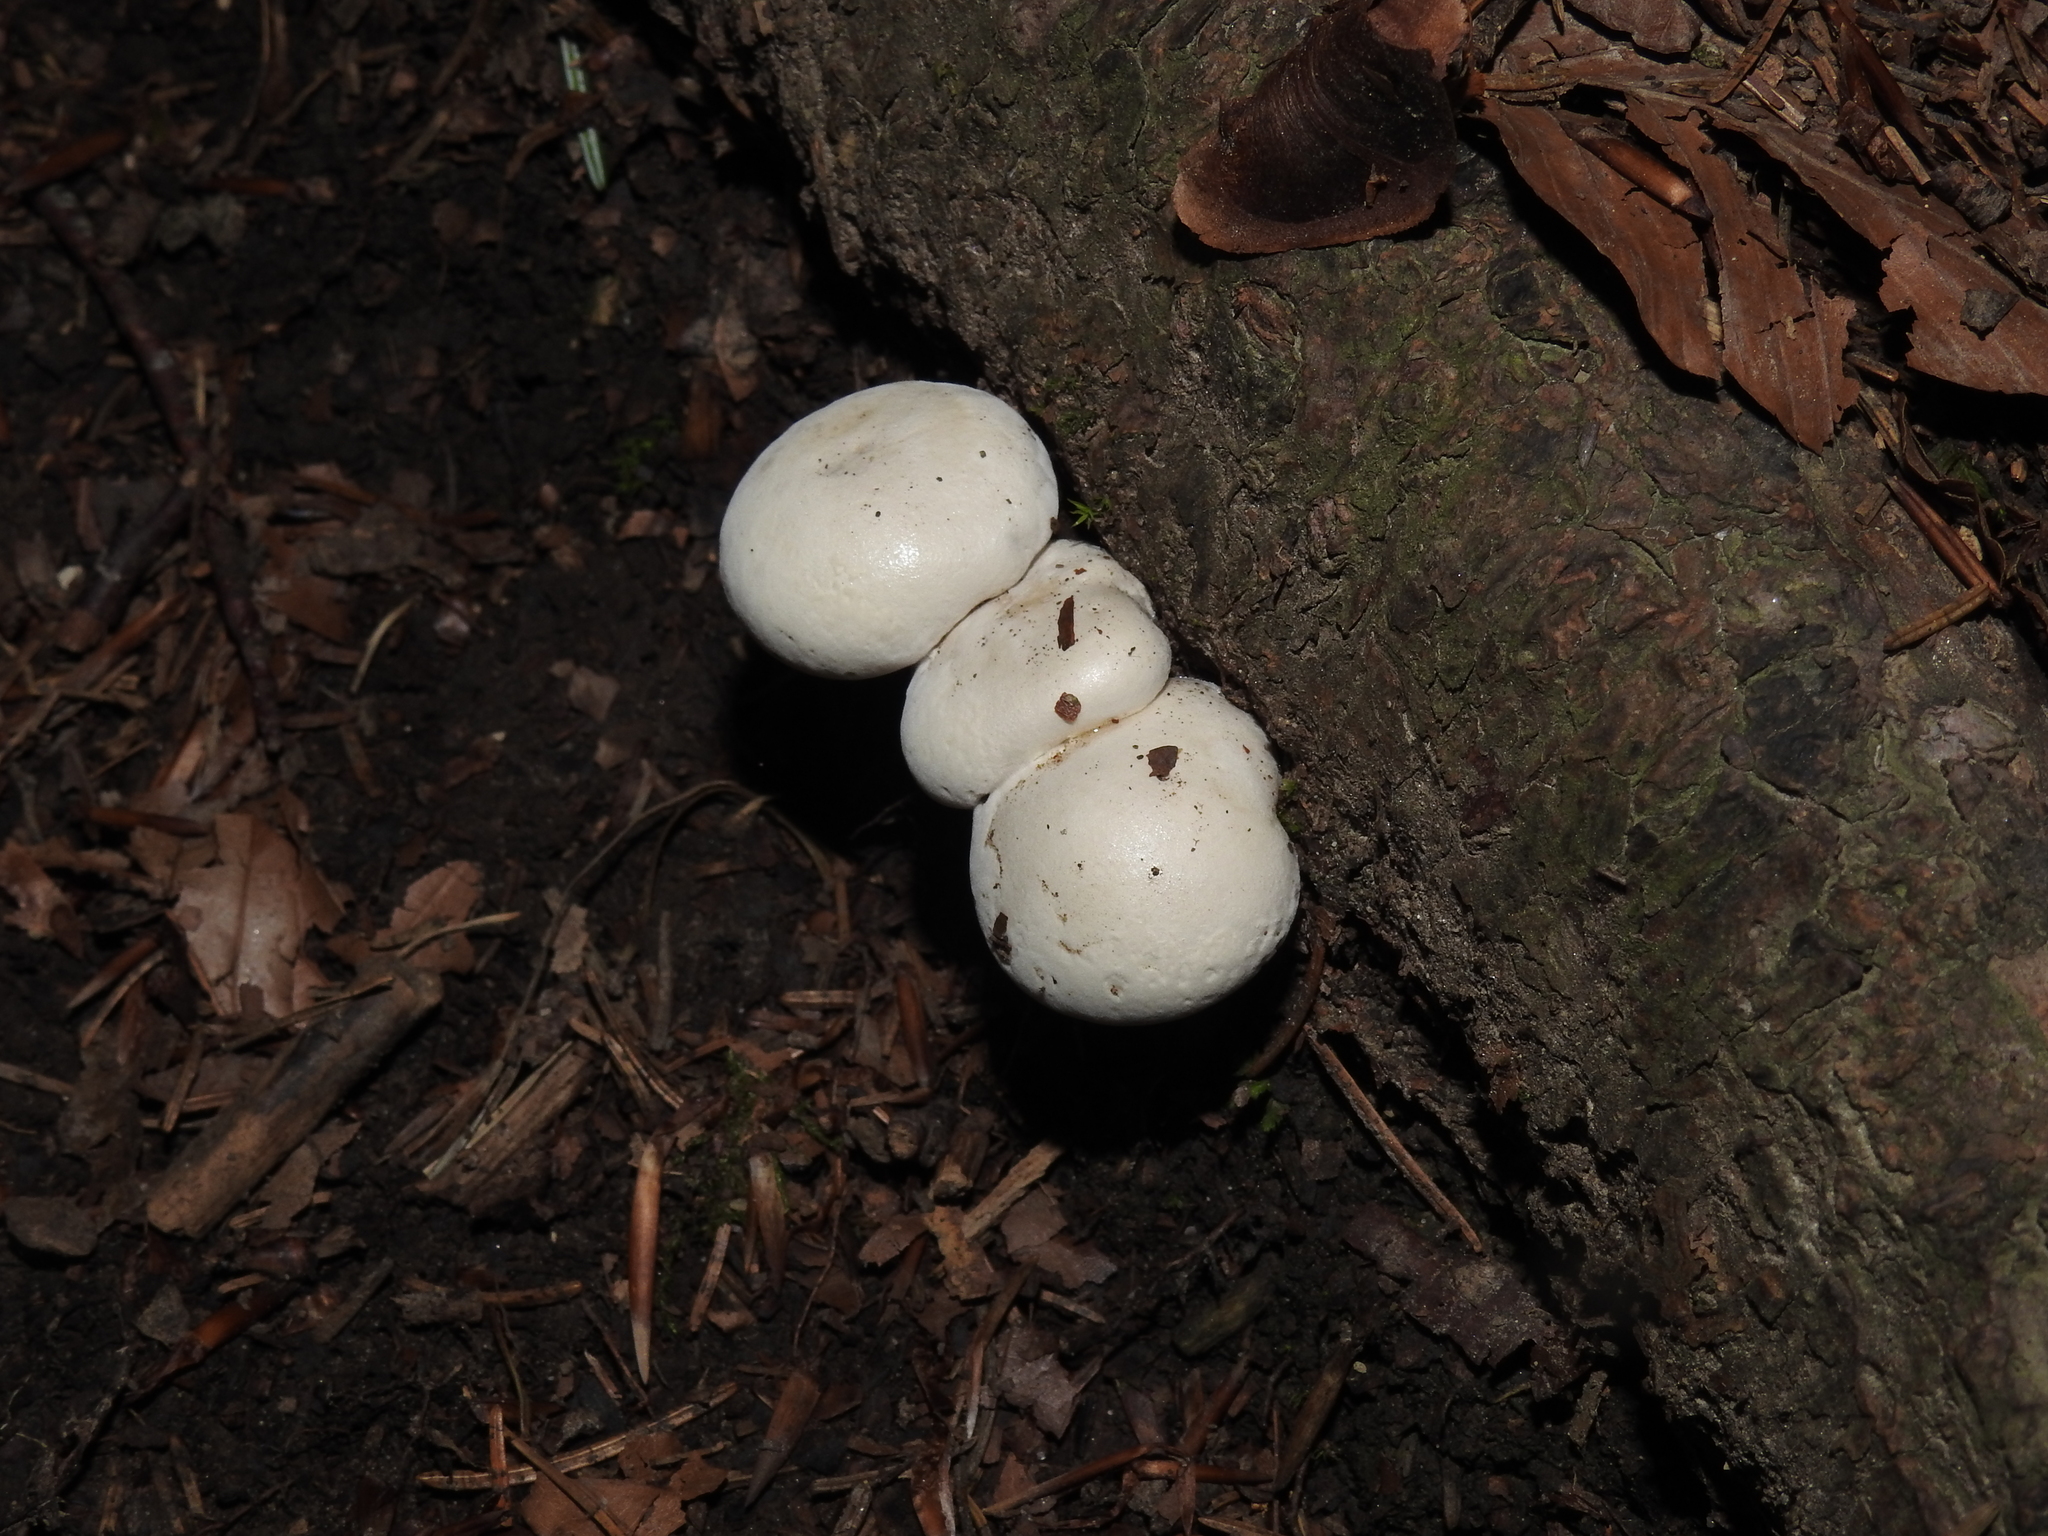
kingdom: Fungi
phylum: Basidiomycota
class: Agaricomycetes
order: Agaricales
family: Entolomataceae
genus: Clitopilus
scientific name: Clitopilus prunulus
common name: The miller
